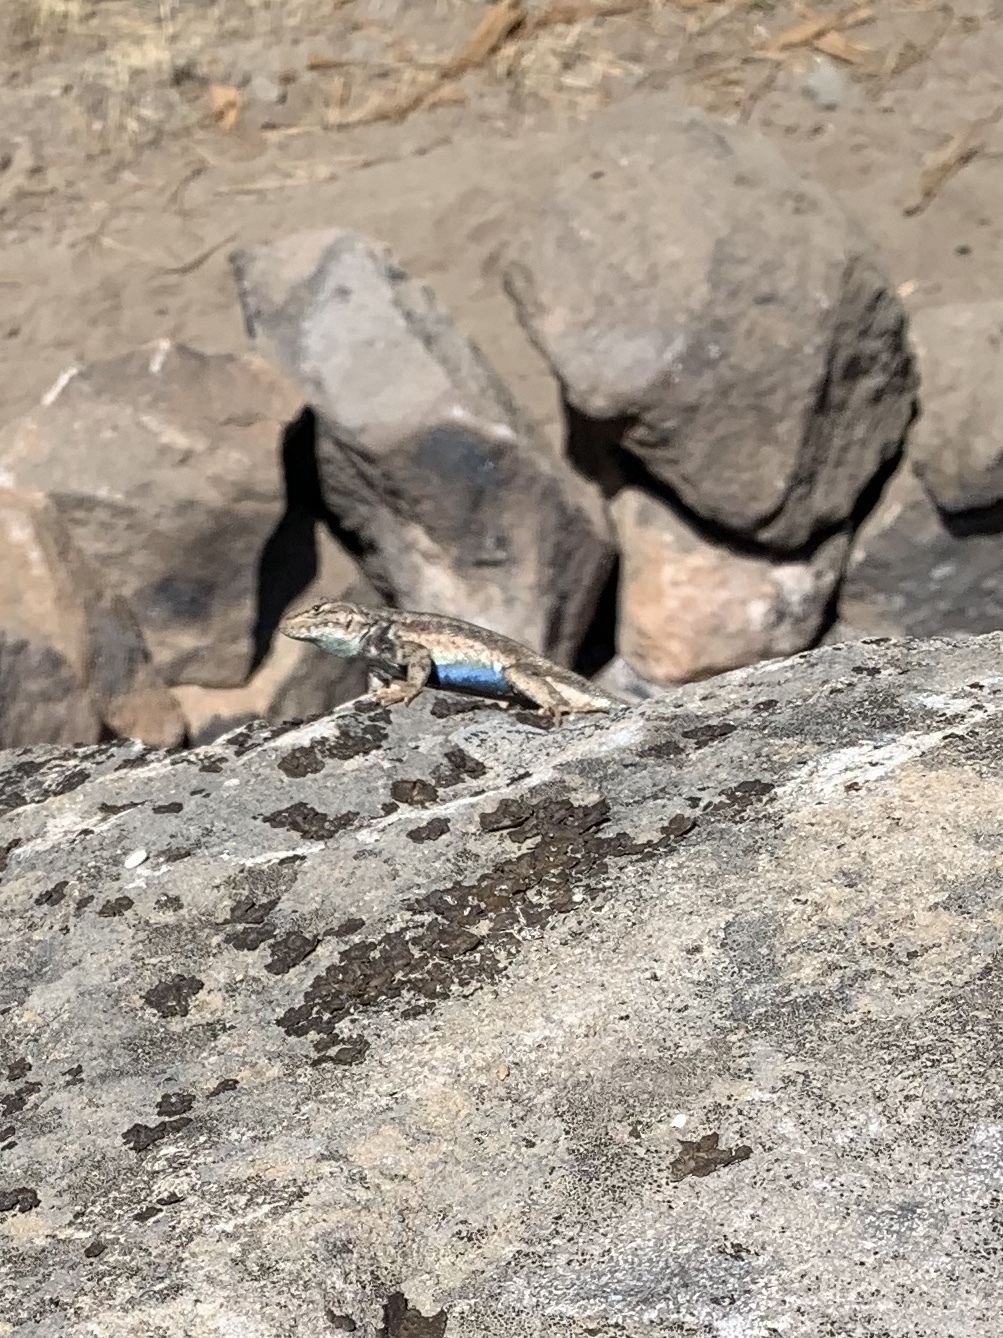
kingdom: Animalia
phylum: Chordata
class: Squamata
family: Phrynosomatidae
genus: Sceloporus
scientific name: Sceloporus graciosus
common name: Sagebrush lizard
